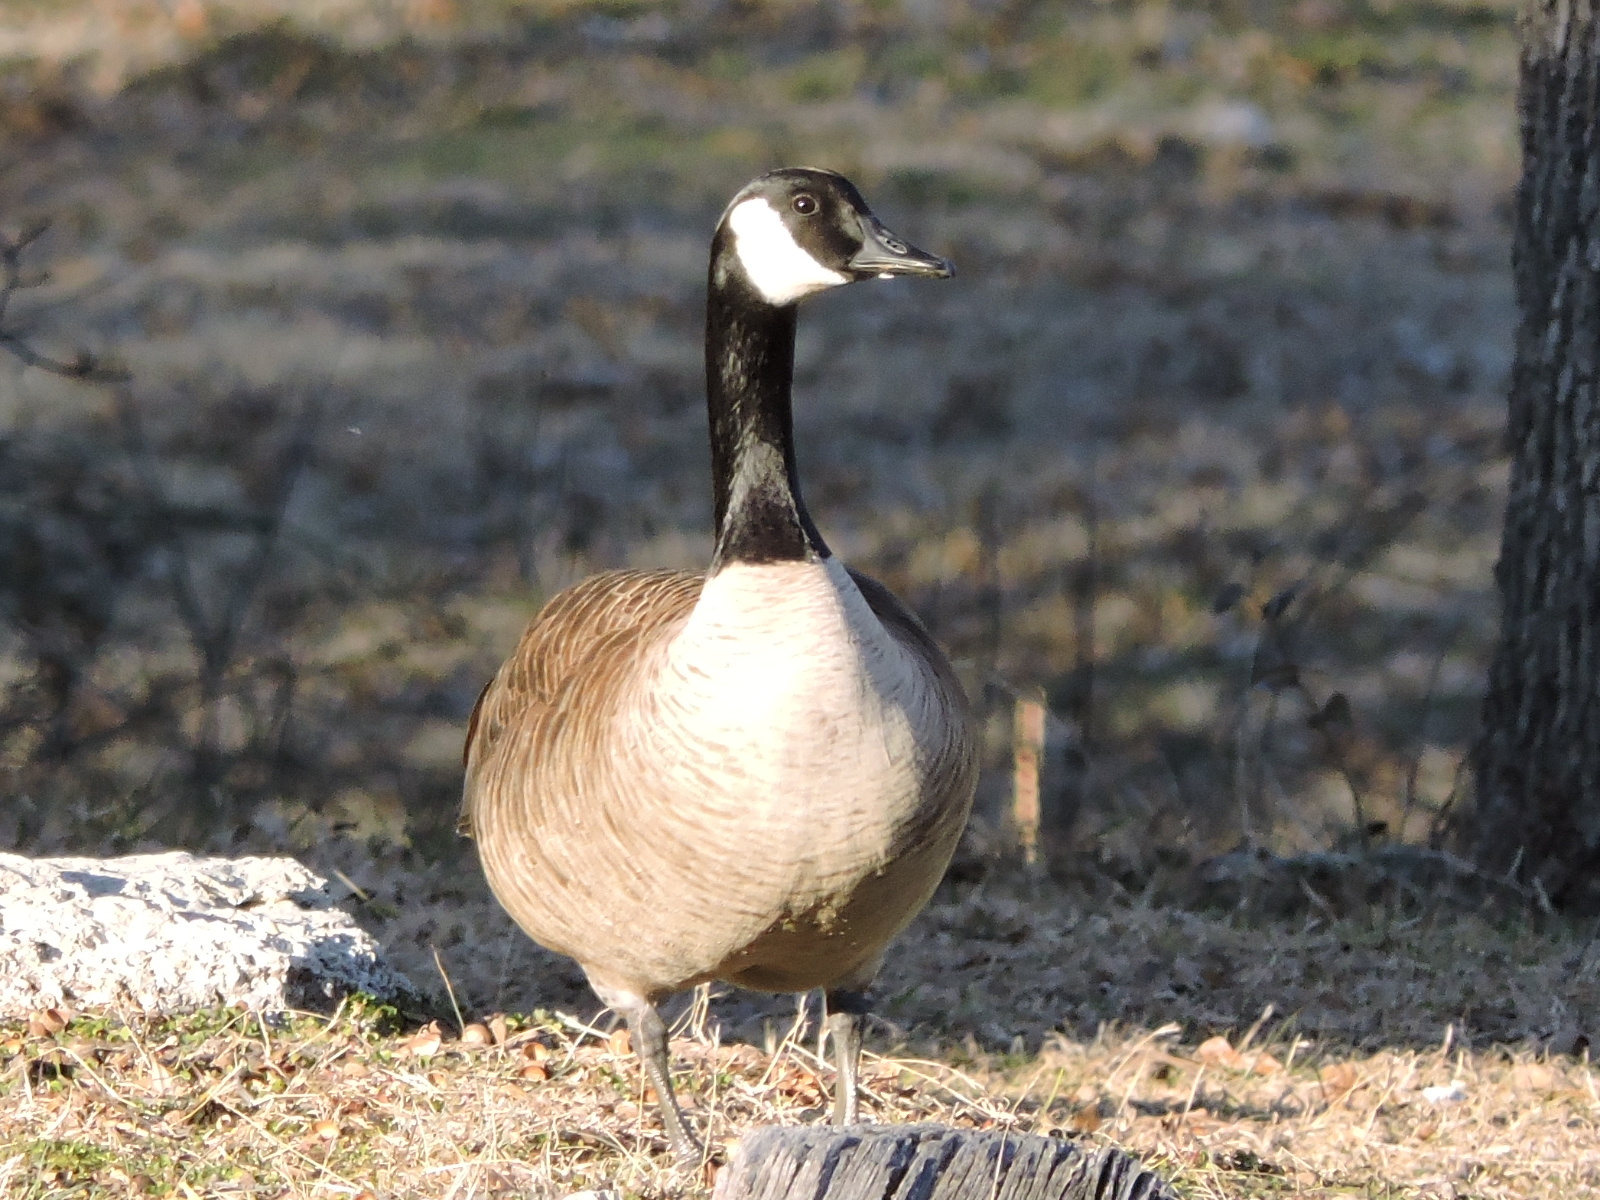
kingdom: Animalia
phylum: Chordata
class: Aves
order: Anseriformes
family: Anatidae
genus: Branta
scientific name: Branta canadensis
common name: Canada goose
